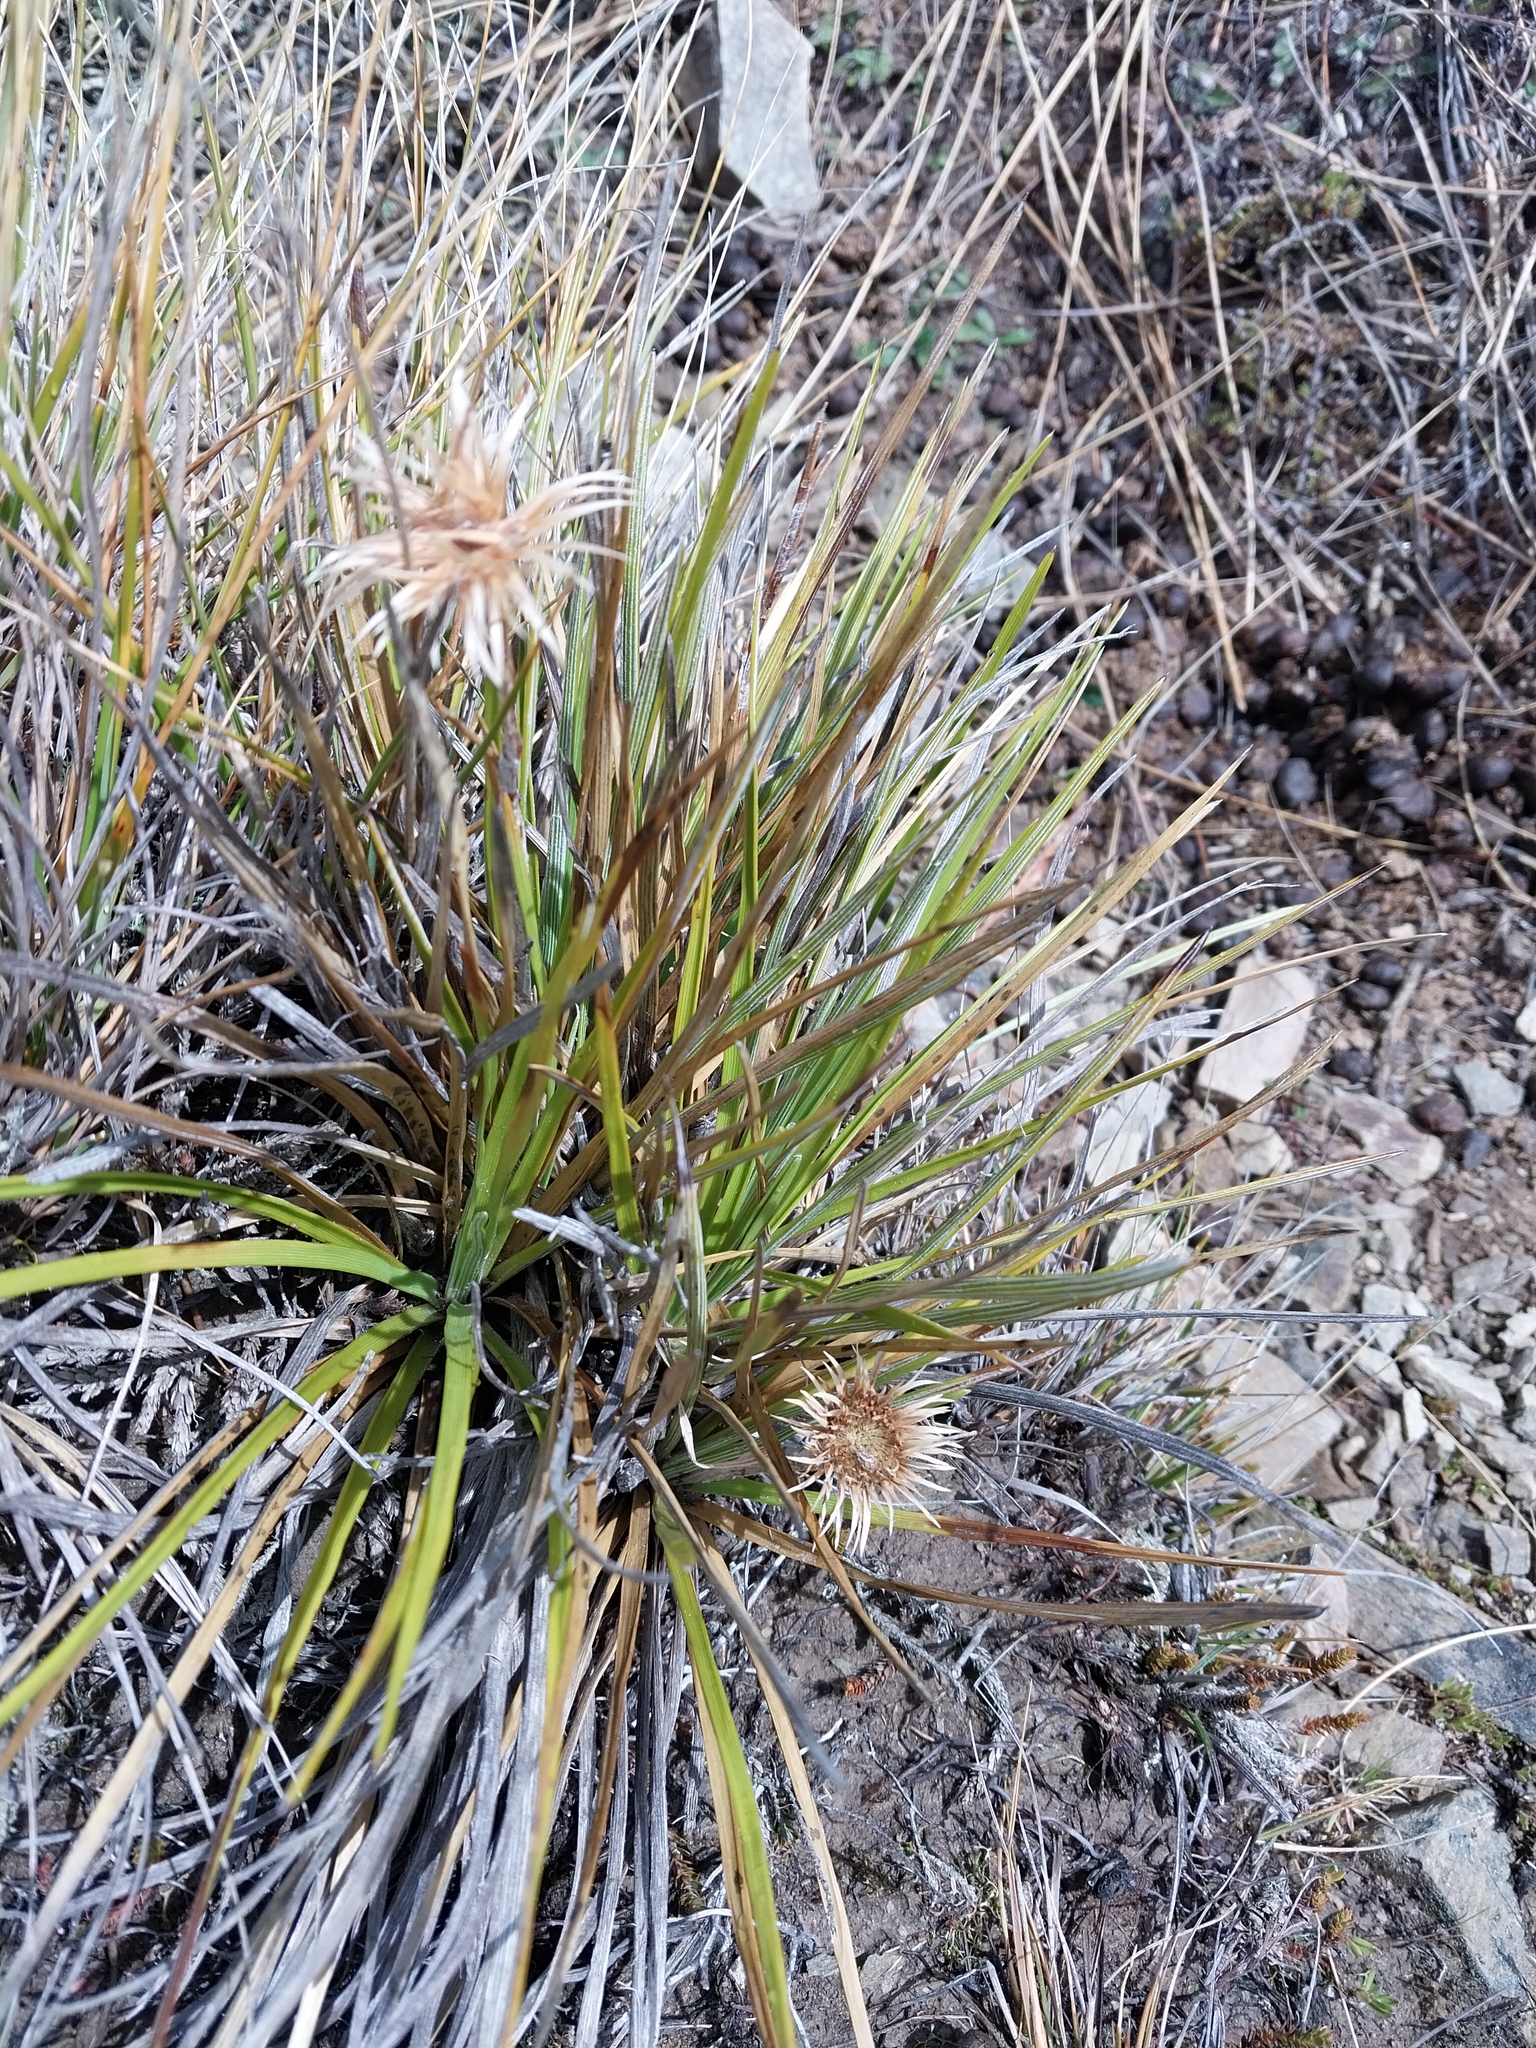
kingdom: Plantae
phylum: Tracheophyta
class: Magnoliopsida
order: Asterales
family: Asteraceae
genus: Celmisia
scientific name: Celmisia lyallii
